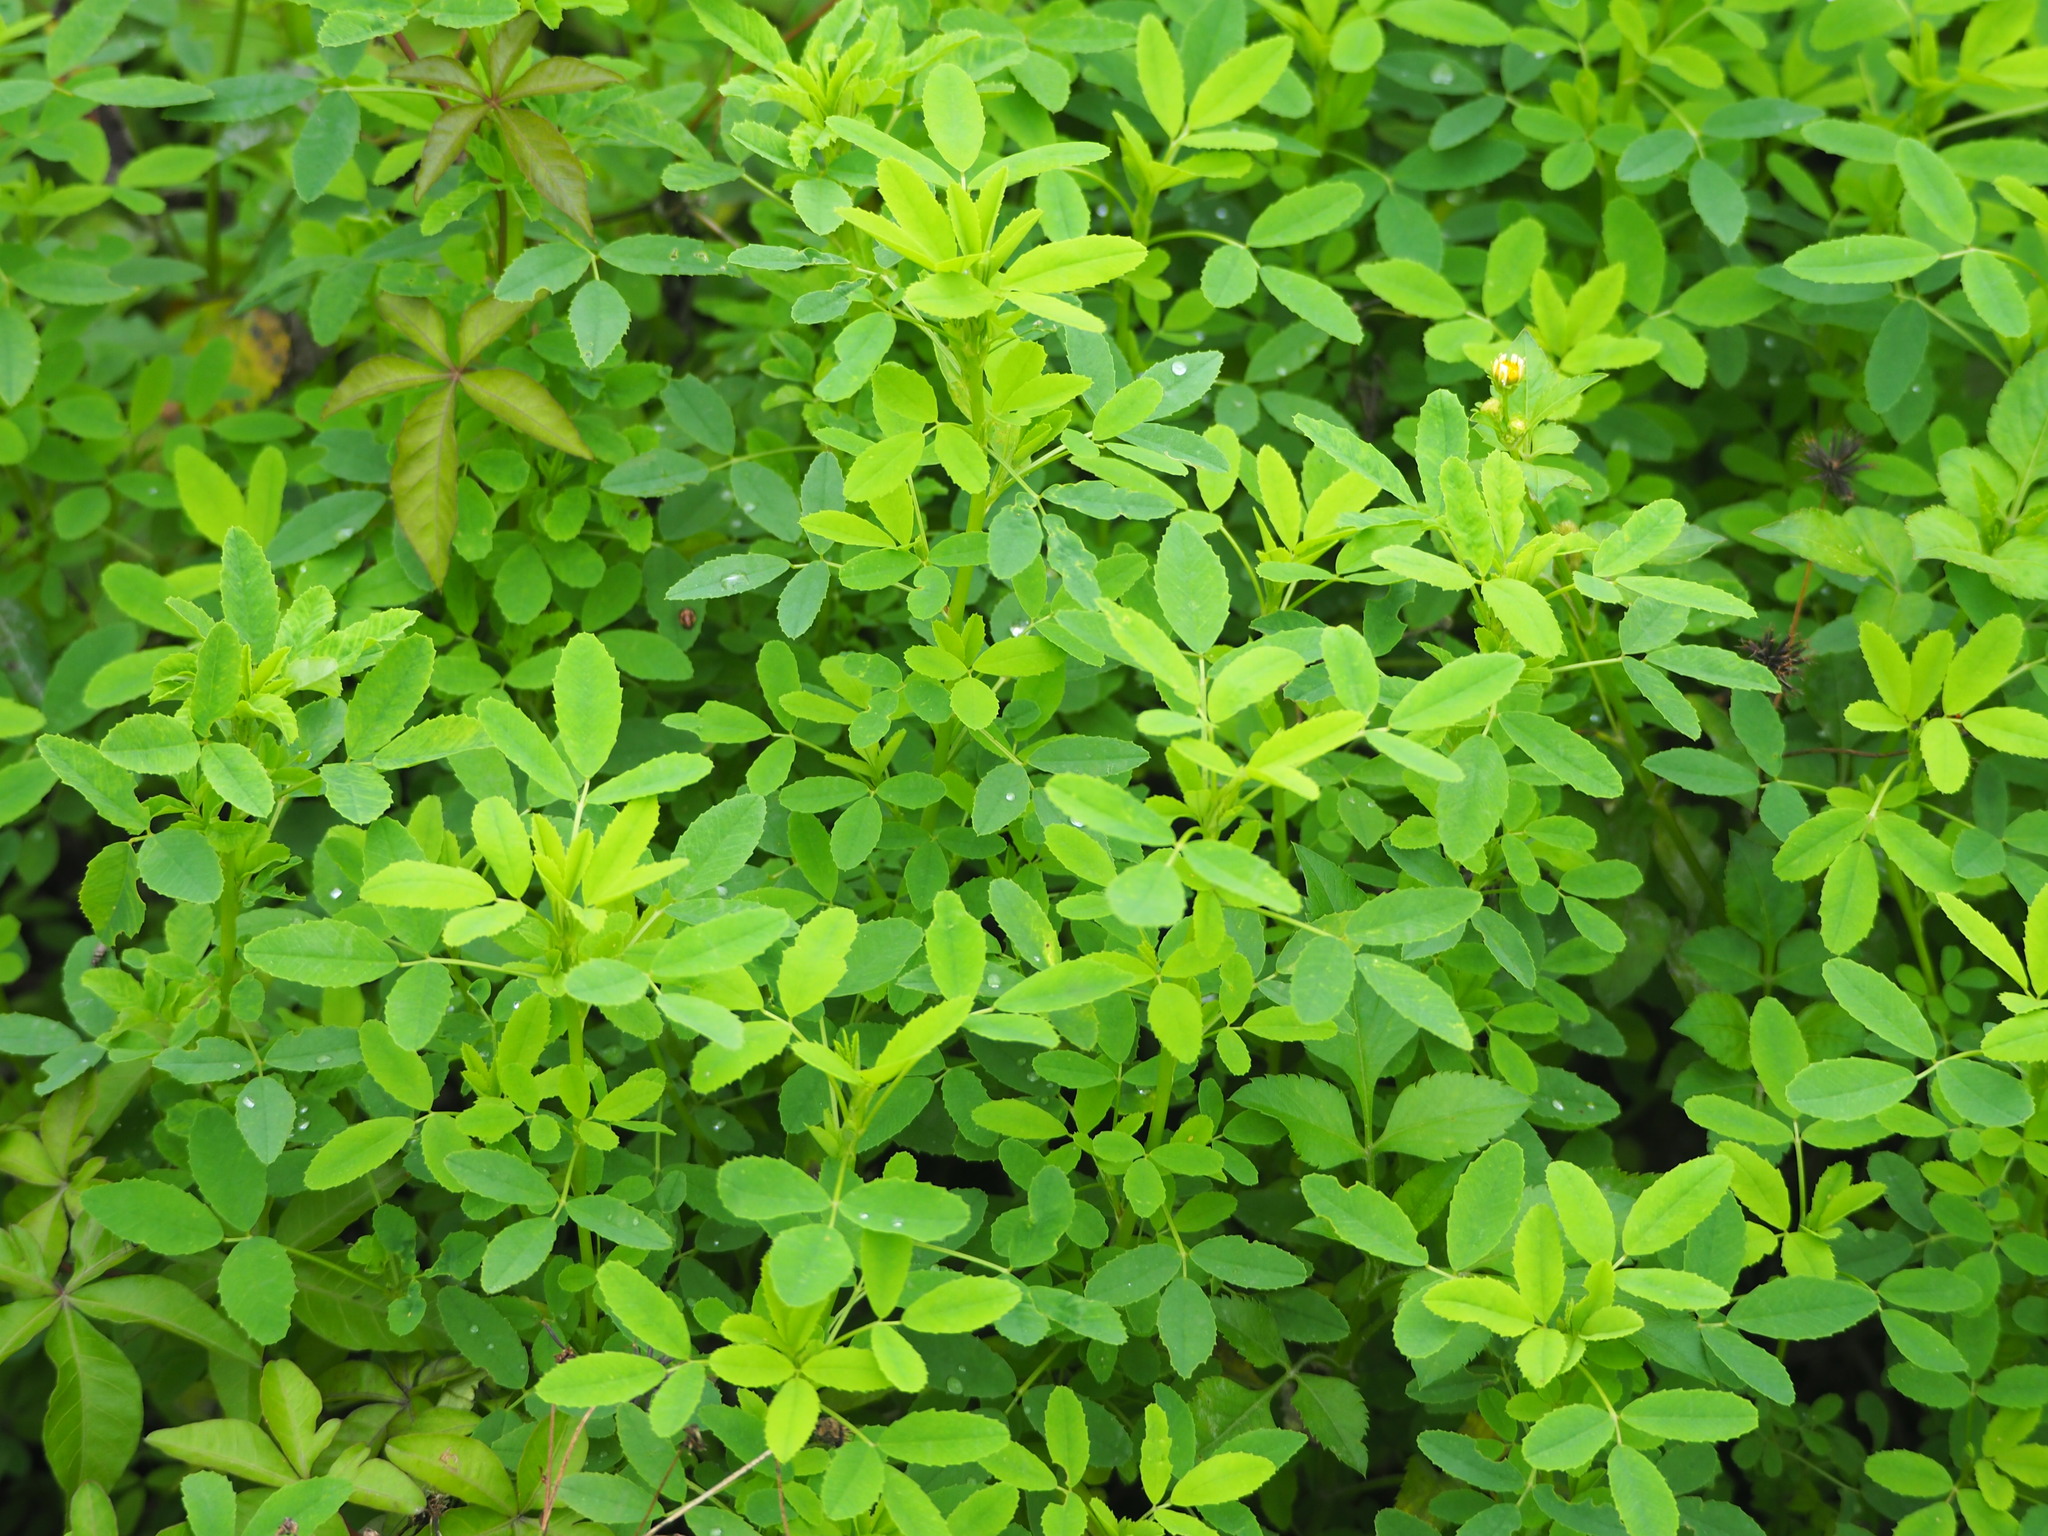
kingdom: Plantae
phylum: Tracheophyta
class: Magnoliopsida
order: Fabales
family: Fabaceae
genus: Melilotus
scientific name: Melilotus indicus
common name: Small melilot
